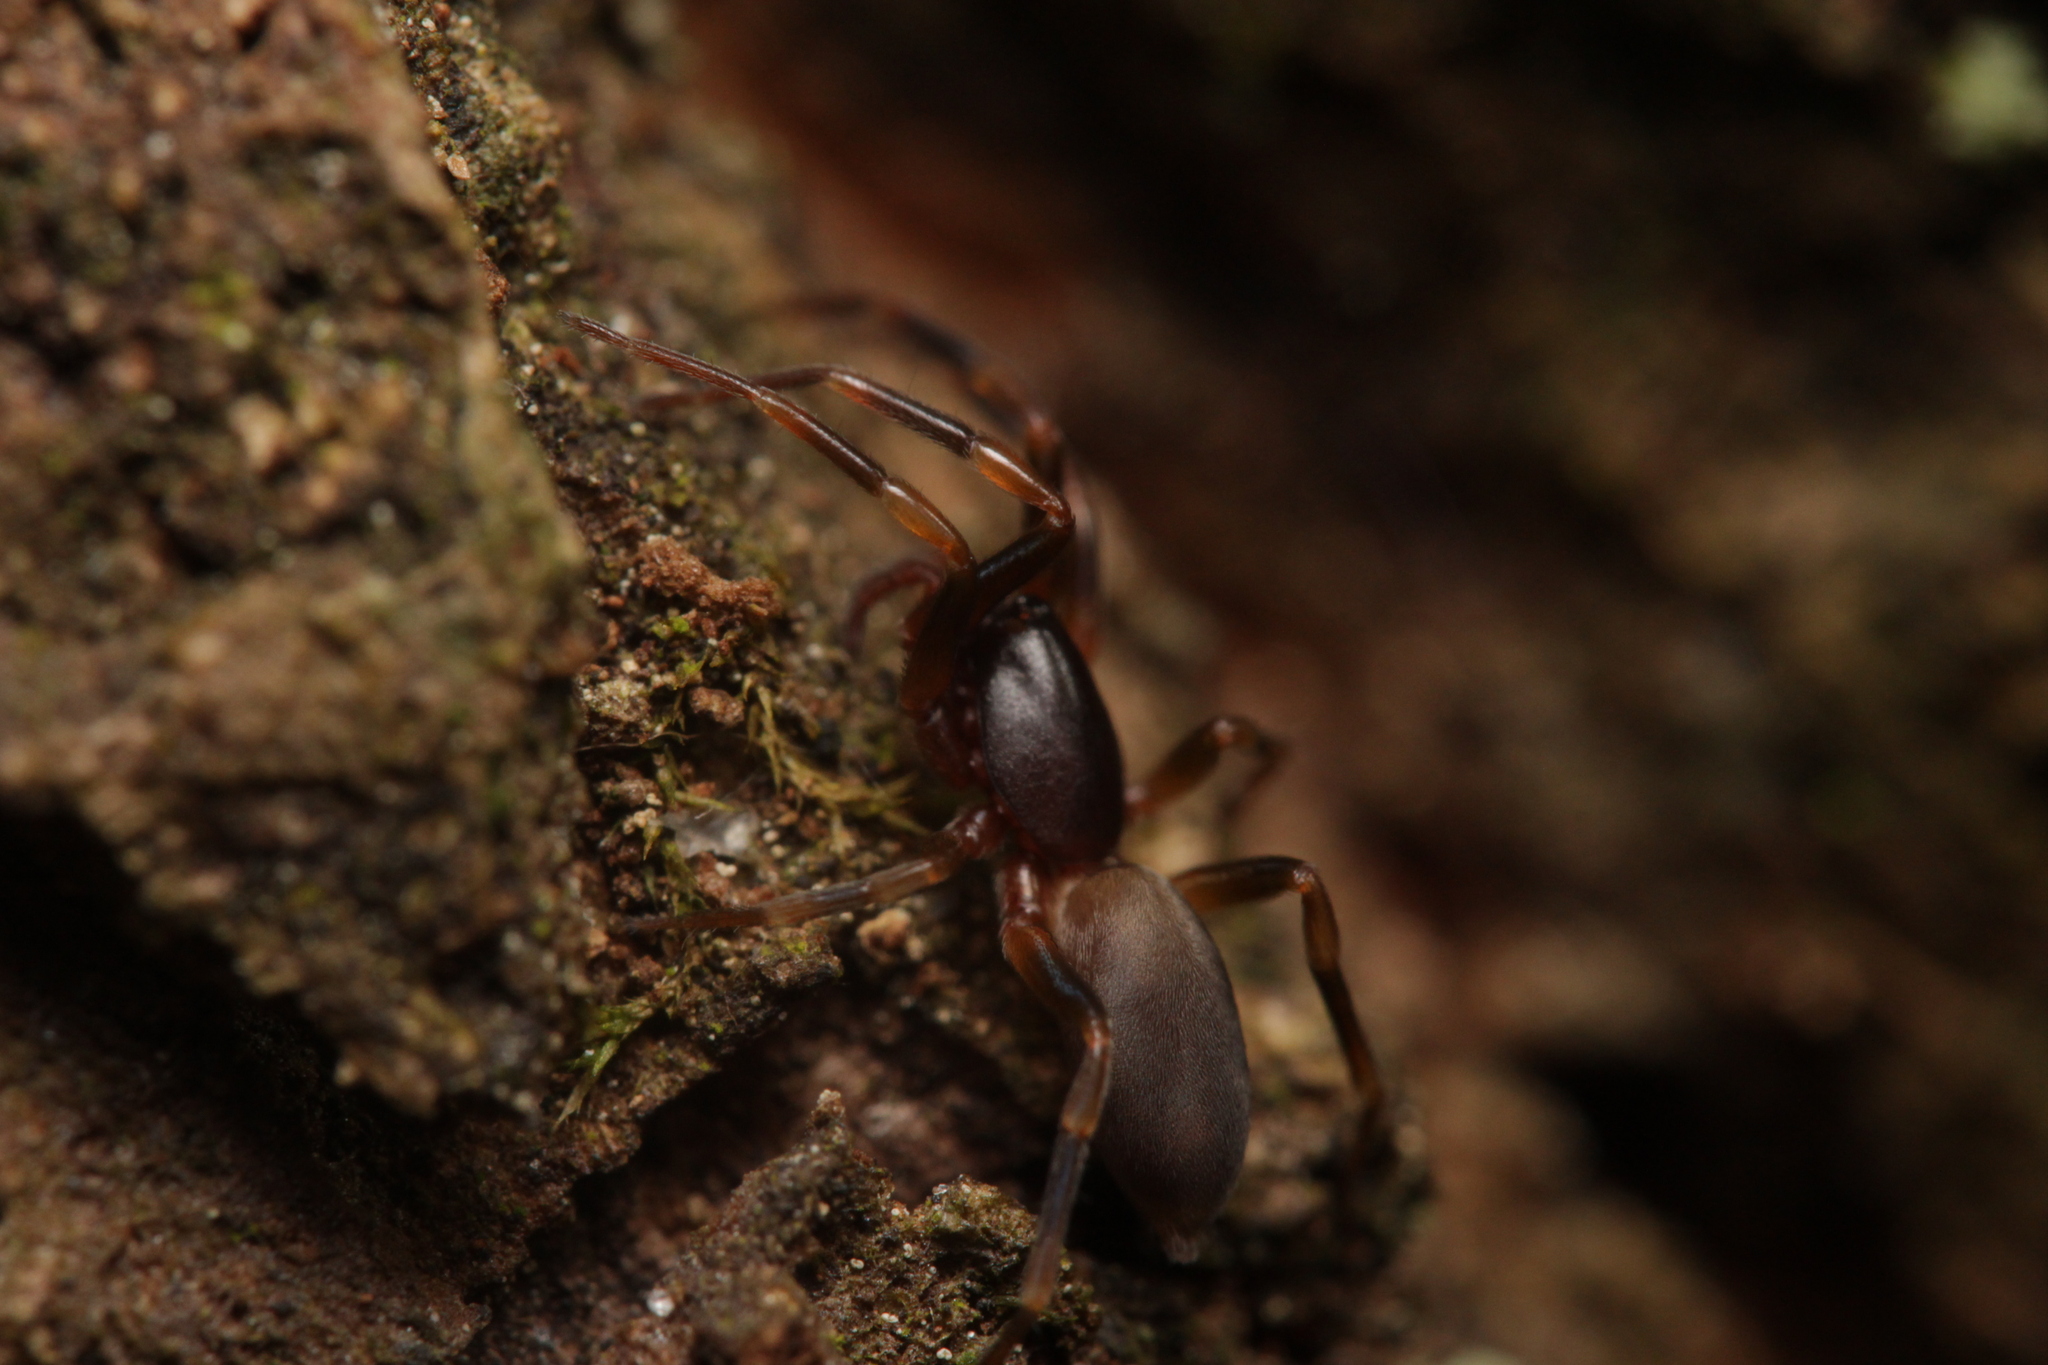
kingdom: Animalia
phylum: Arthropoda
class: Arachnida
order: Araneae
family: Dysderidae
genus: Harpactea
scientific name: Harpactea hombergi
